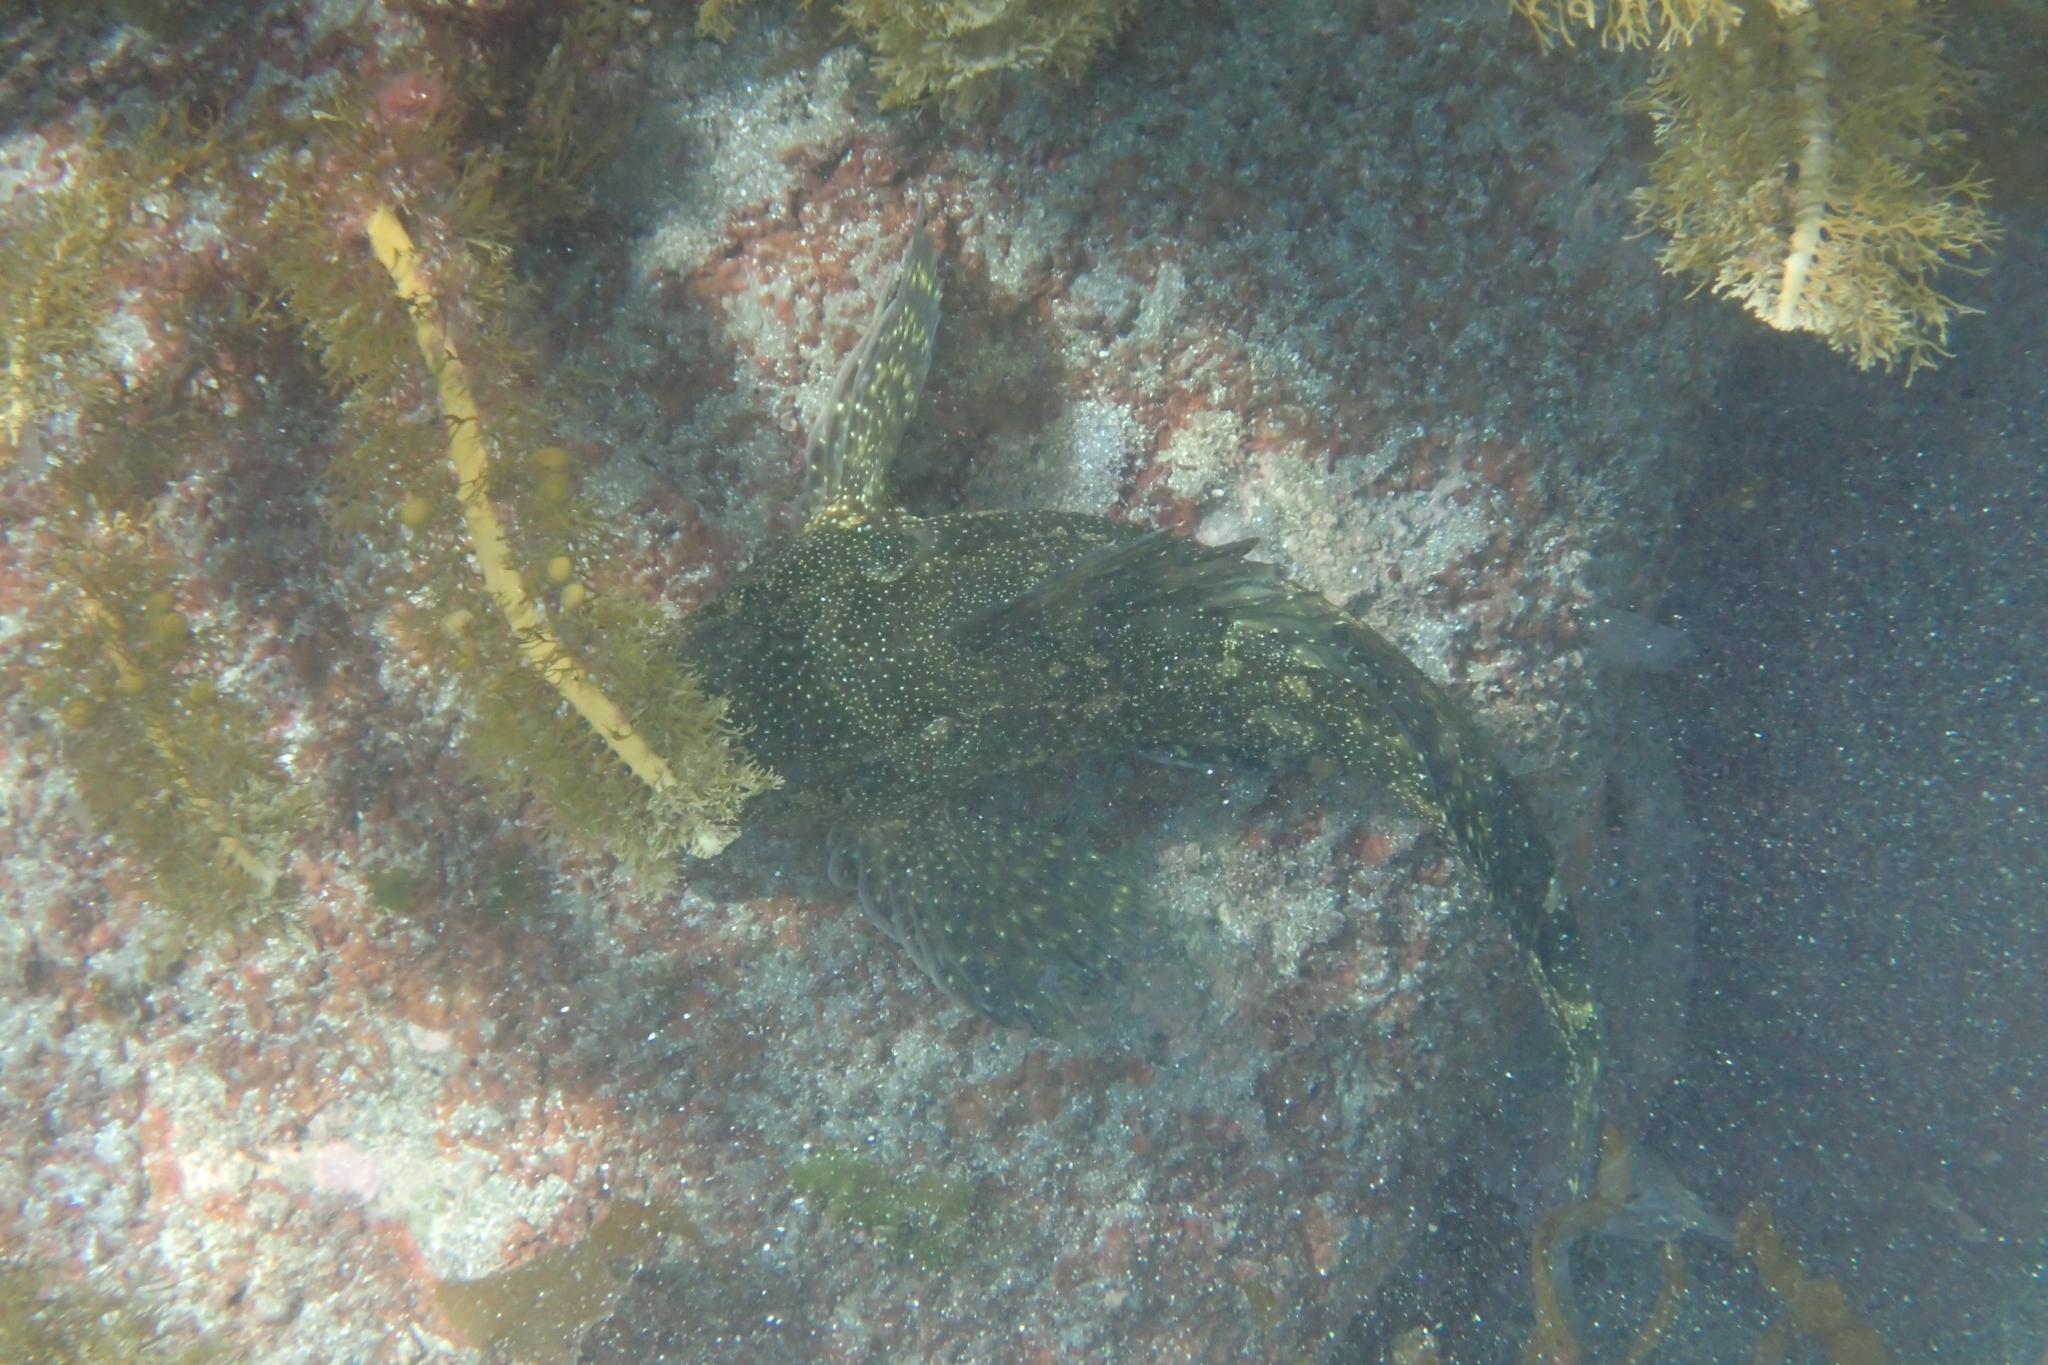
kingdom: Animalia
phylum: Chordata
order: Perciformes
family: Chironemidae
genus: Chironemus
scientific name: Chironemus marmoratus
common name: Kelpfish
